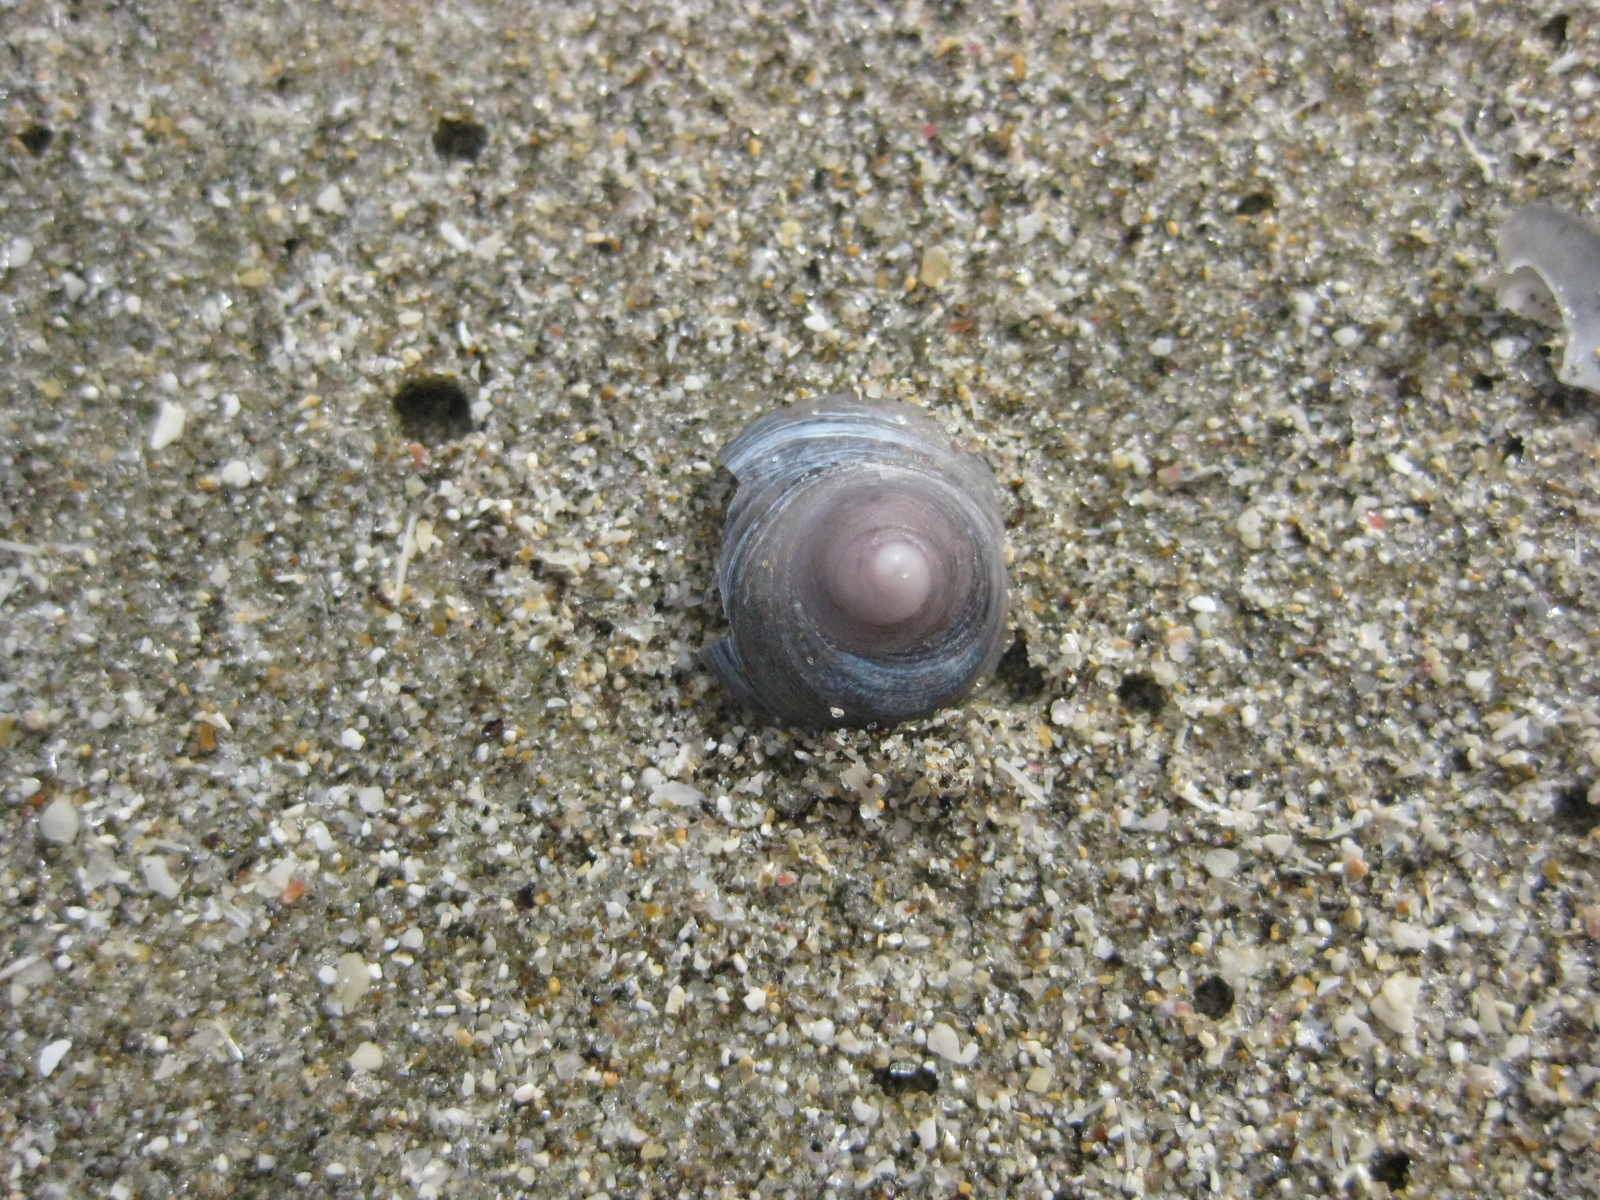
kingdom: Animalia
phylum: Mollusca
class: Gastropoda
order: Littorinimorpha
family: Calyptraeidae
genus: Sigapatella
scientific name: Sigapatella tenuis
